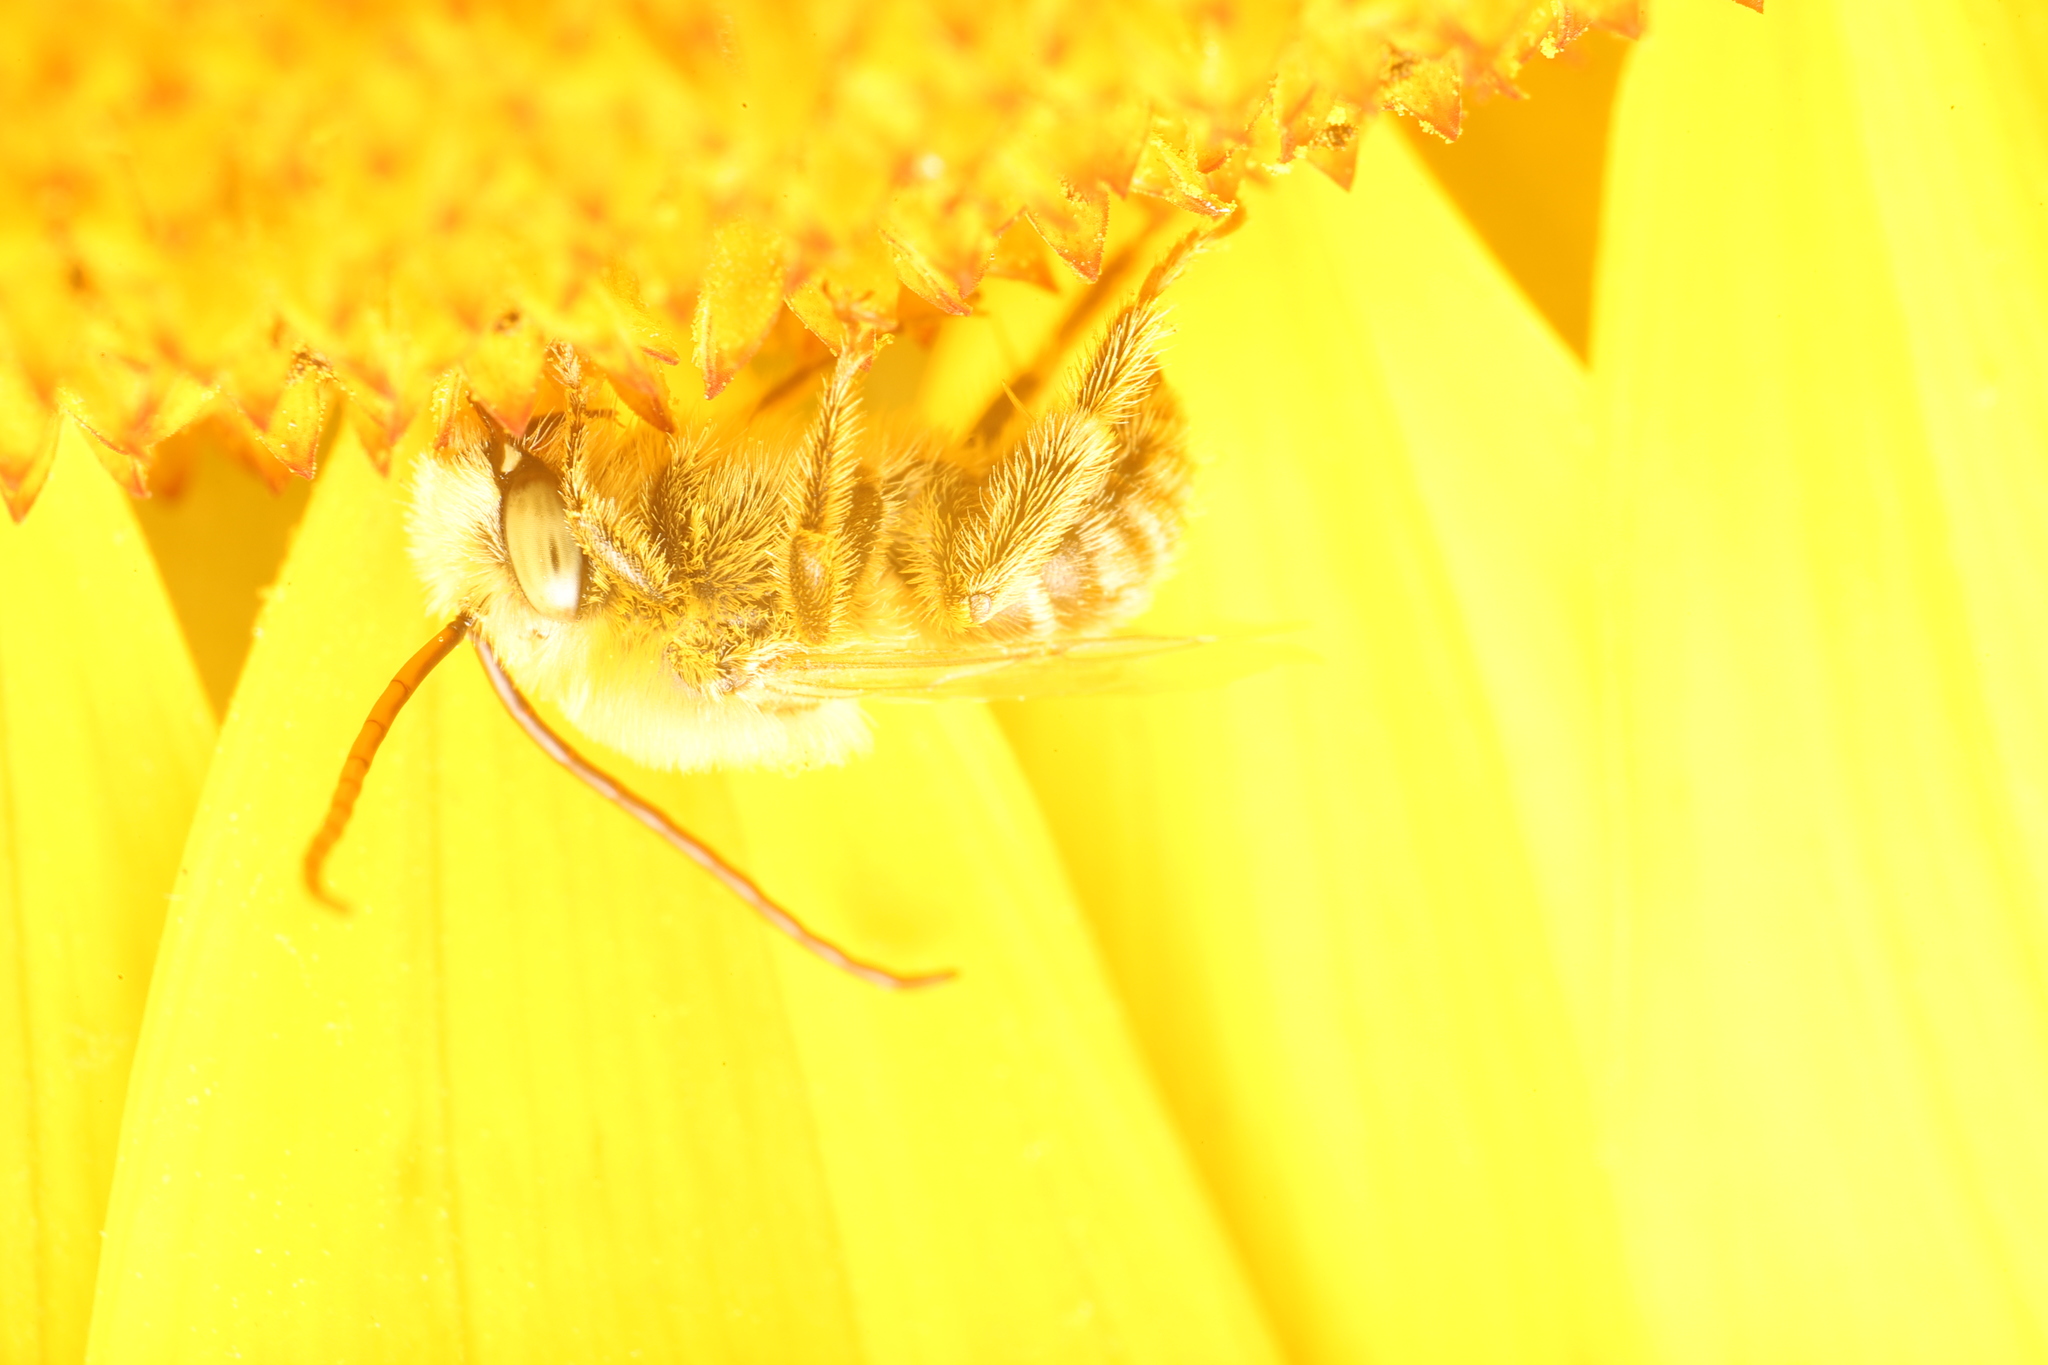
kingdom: Animalia
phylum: Arthropoda
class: Insecta
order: Hymenoptera
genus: Eumelissodes
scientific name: Eumelissodes
